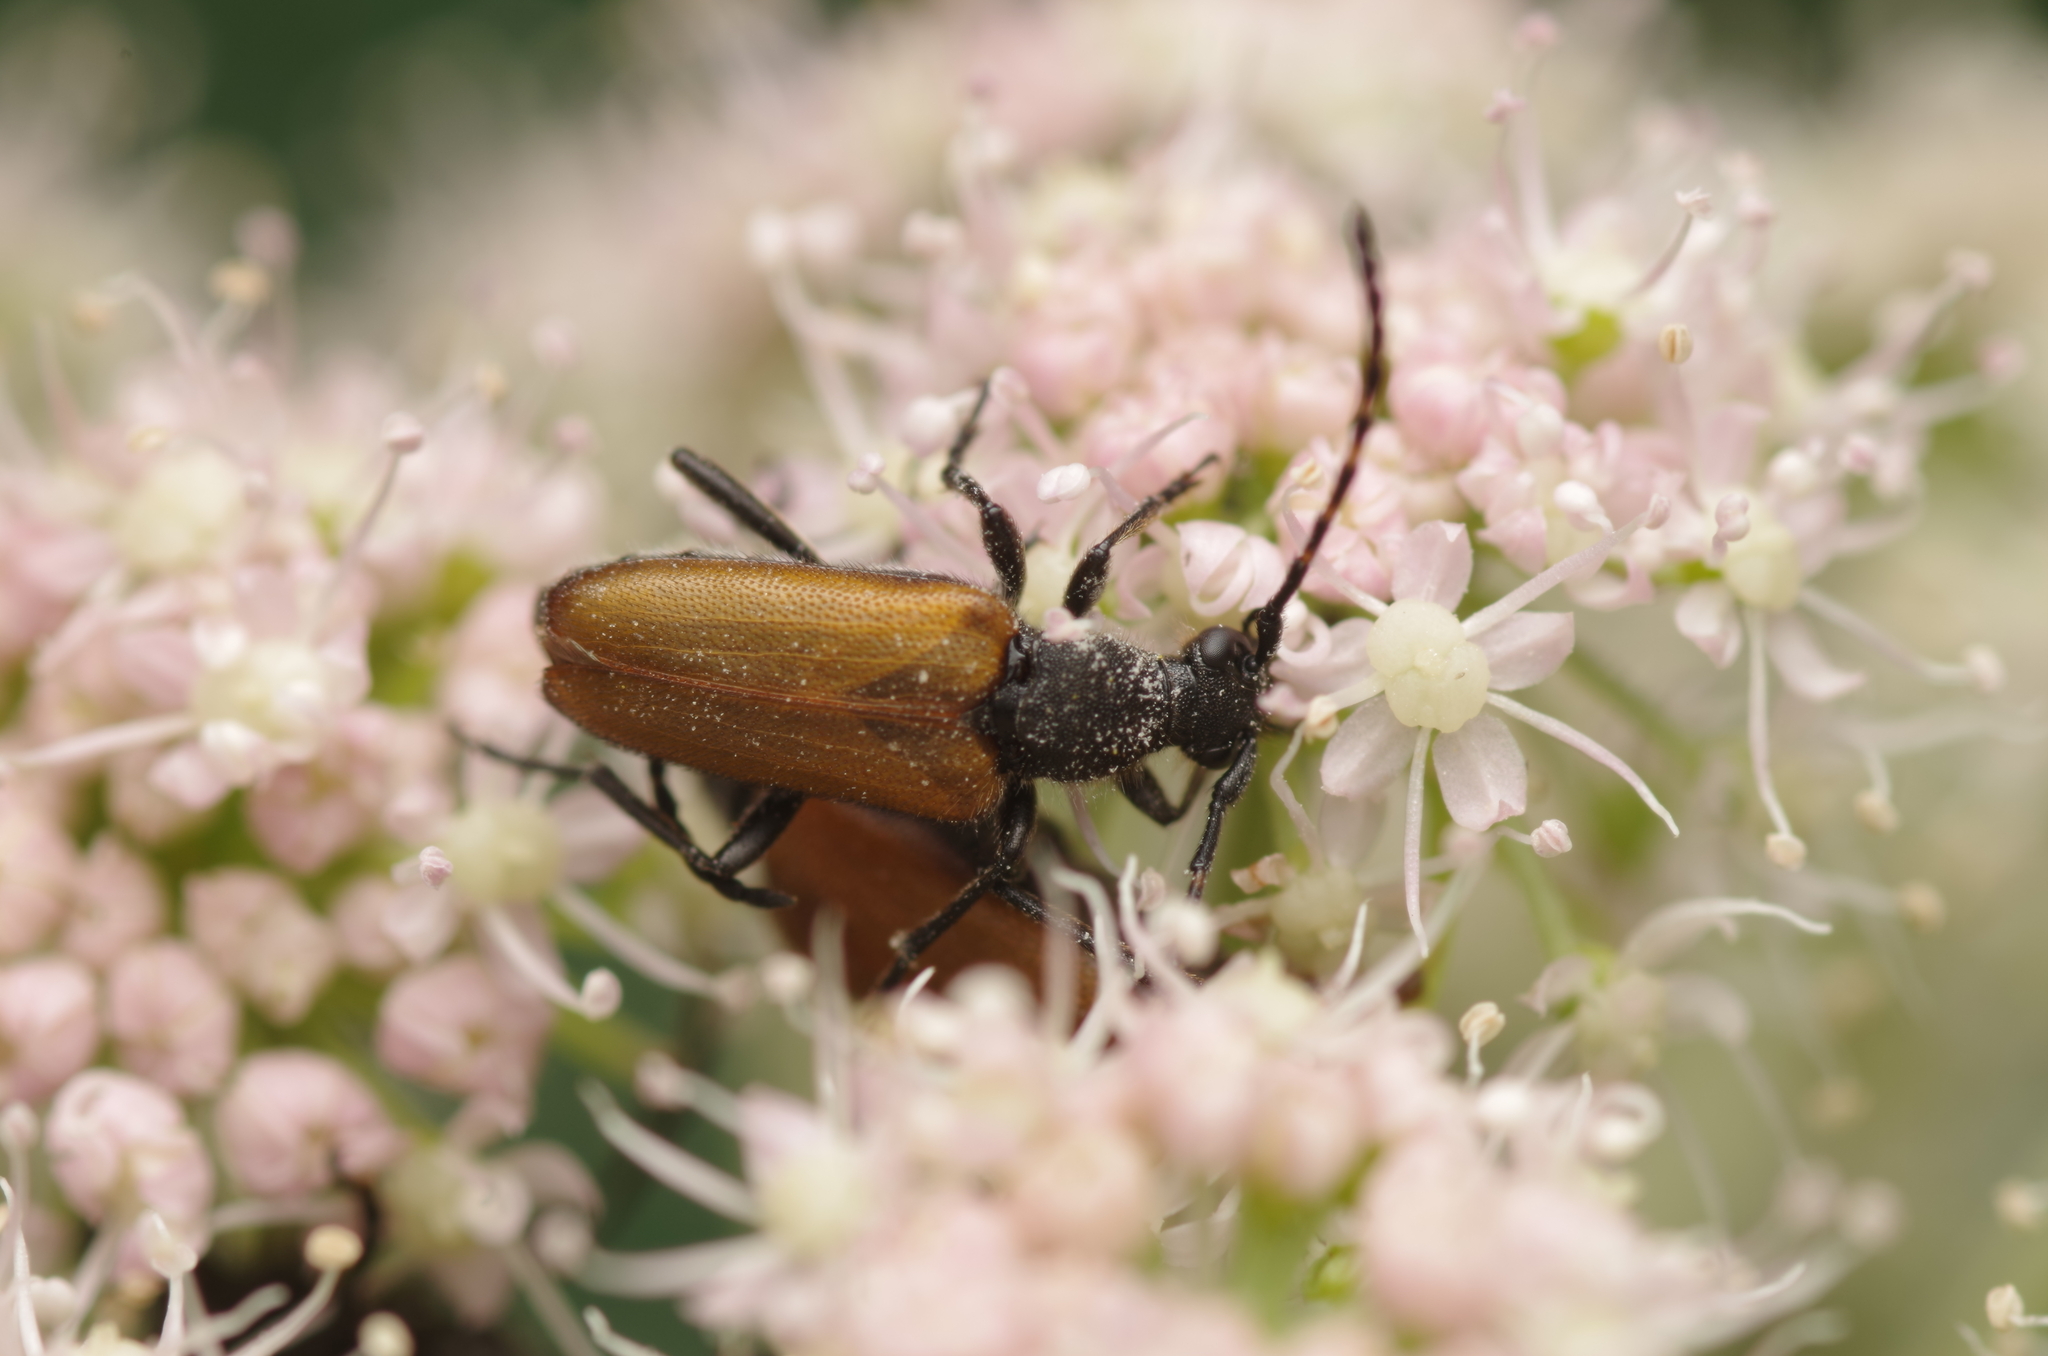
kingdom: Animalia
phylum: Arthropoda
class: Insecta
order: Coleoptera
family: Cerambycidae
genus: Paracorymbia
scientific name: Paracorymbia hybrida
